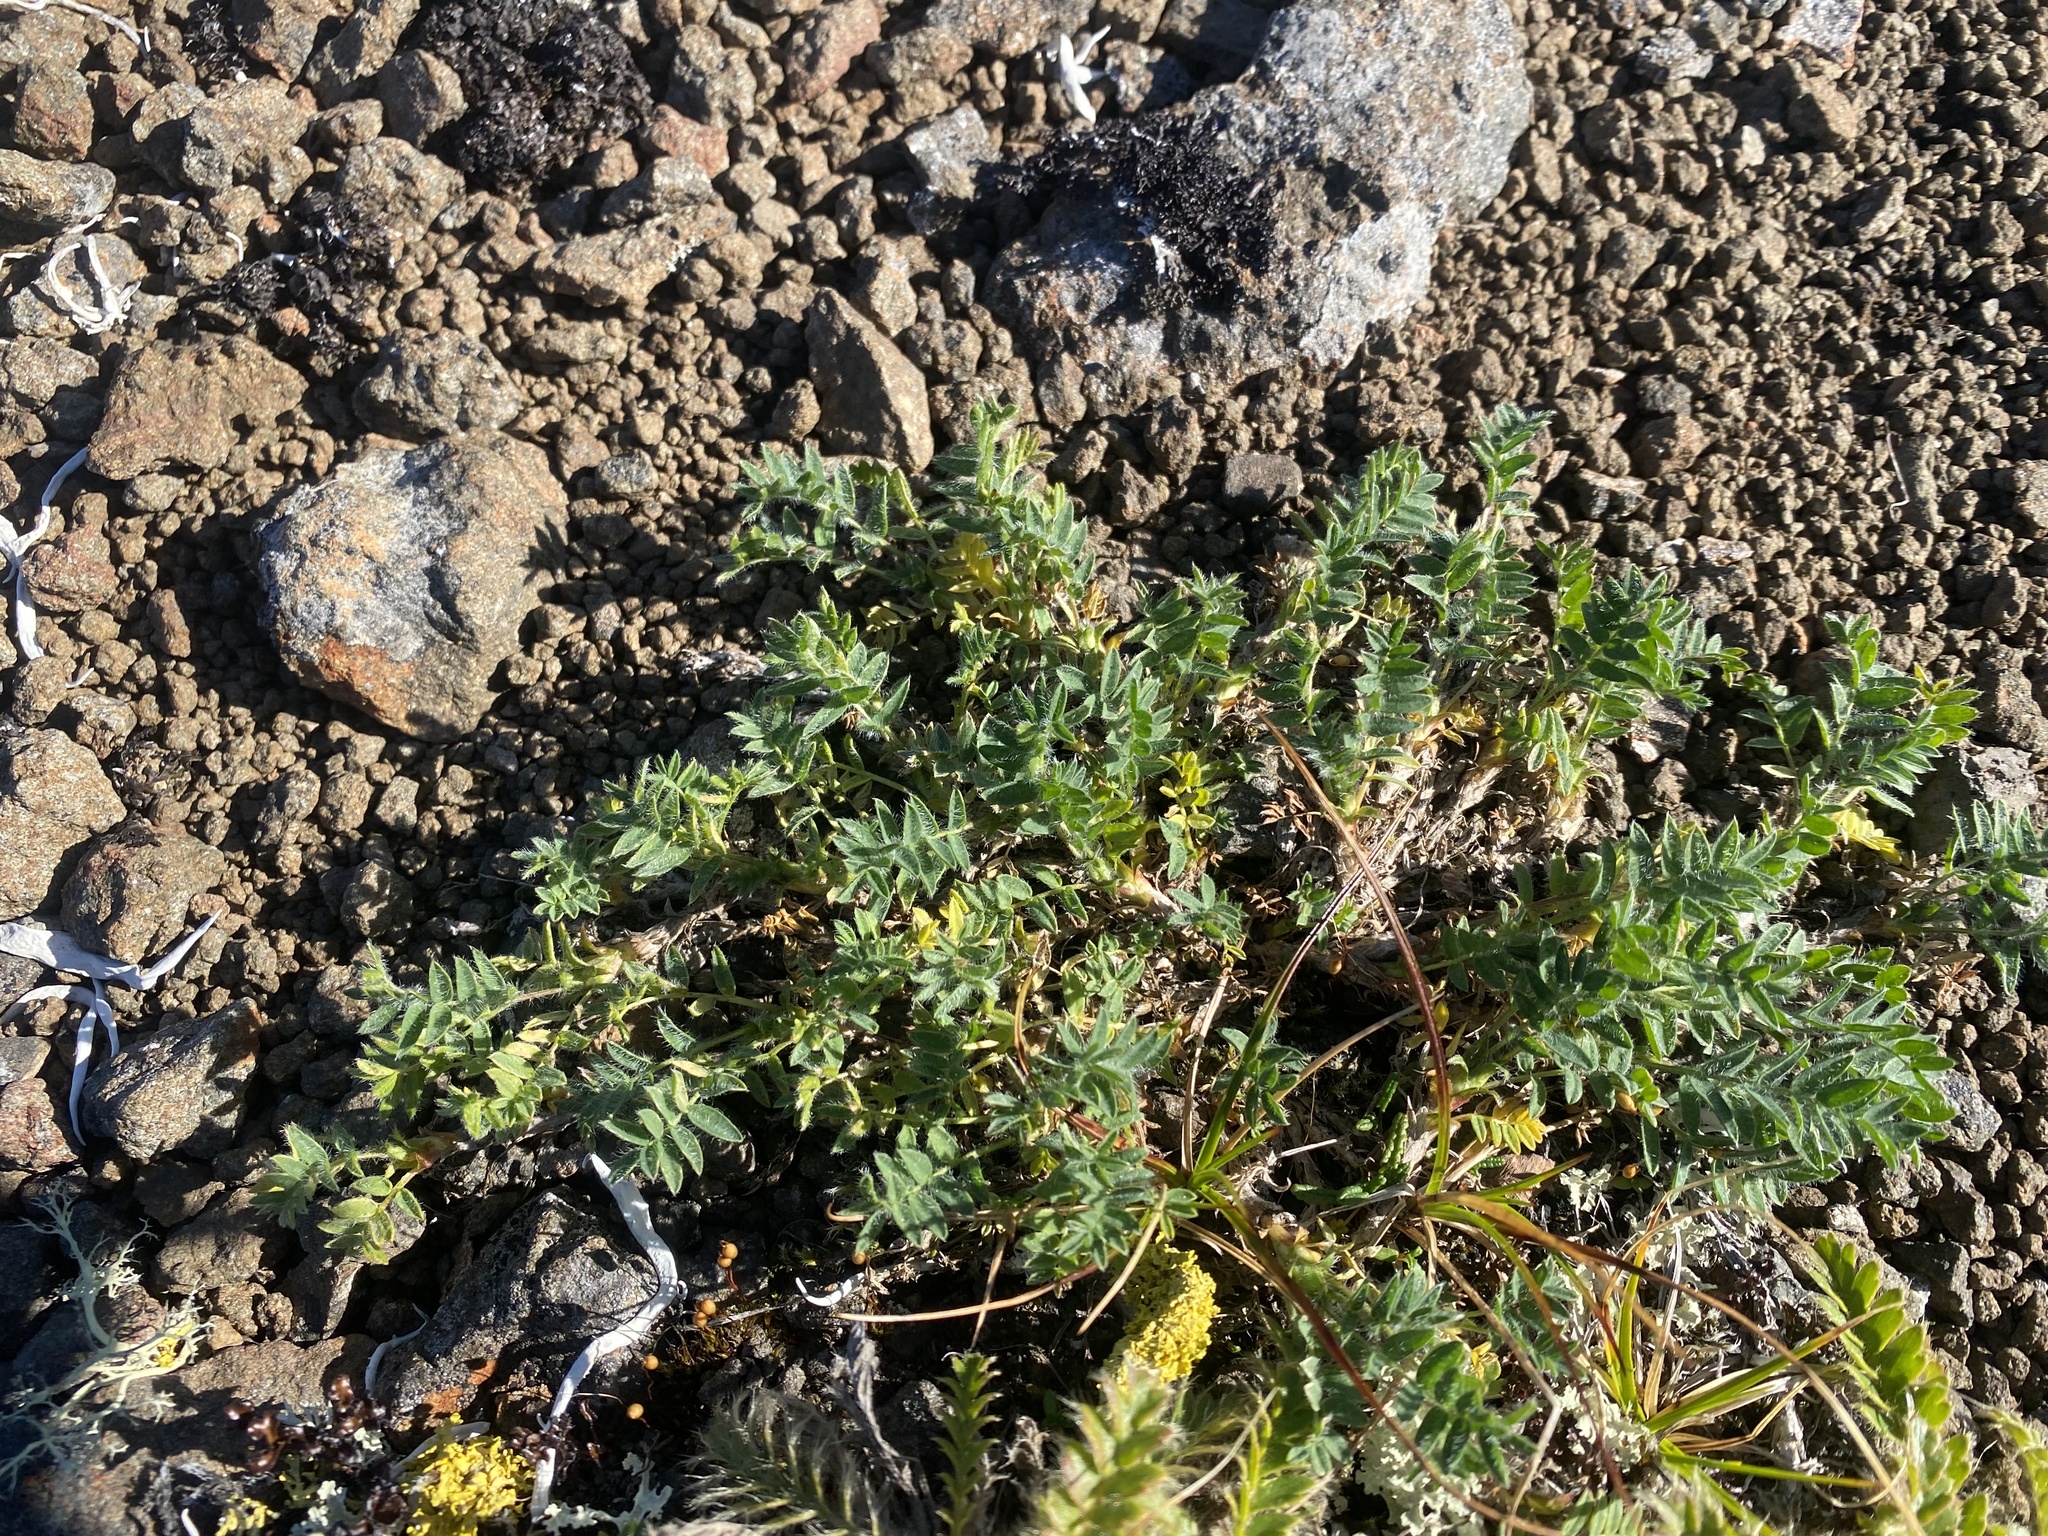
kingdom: Plantae
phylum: Tracheophyta
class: Magnoliopsida
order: Fabales
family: Fabaceae
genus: Oxytropis
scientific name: Oxytropis nigrescens
